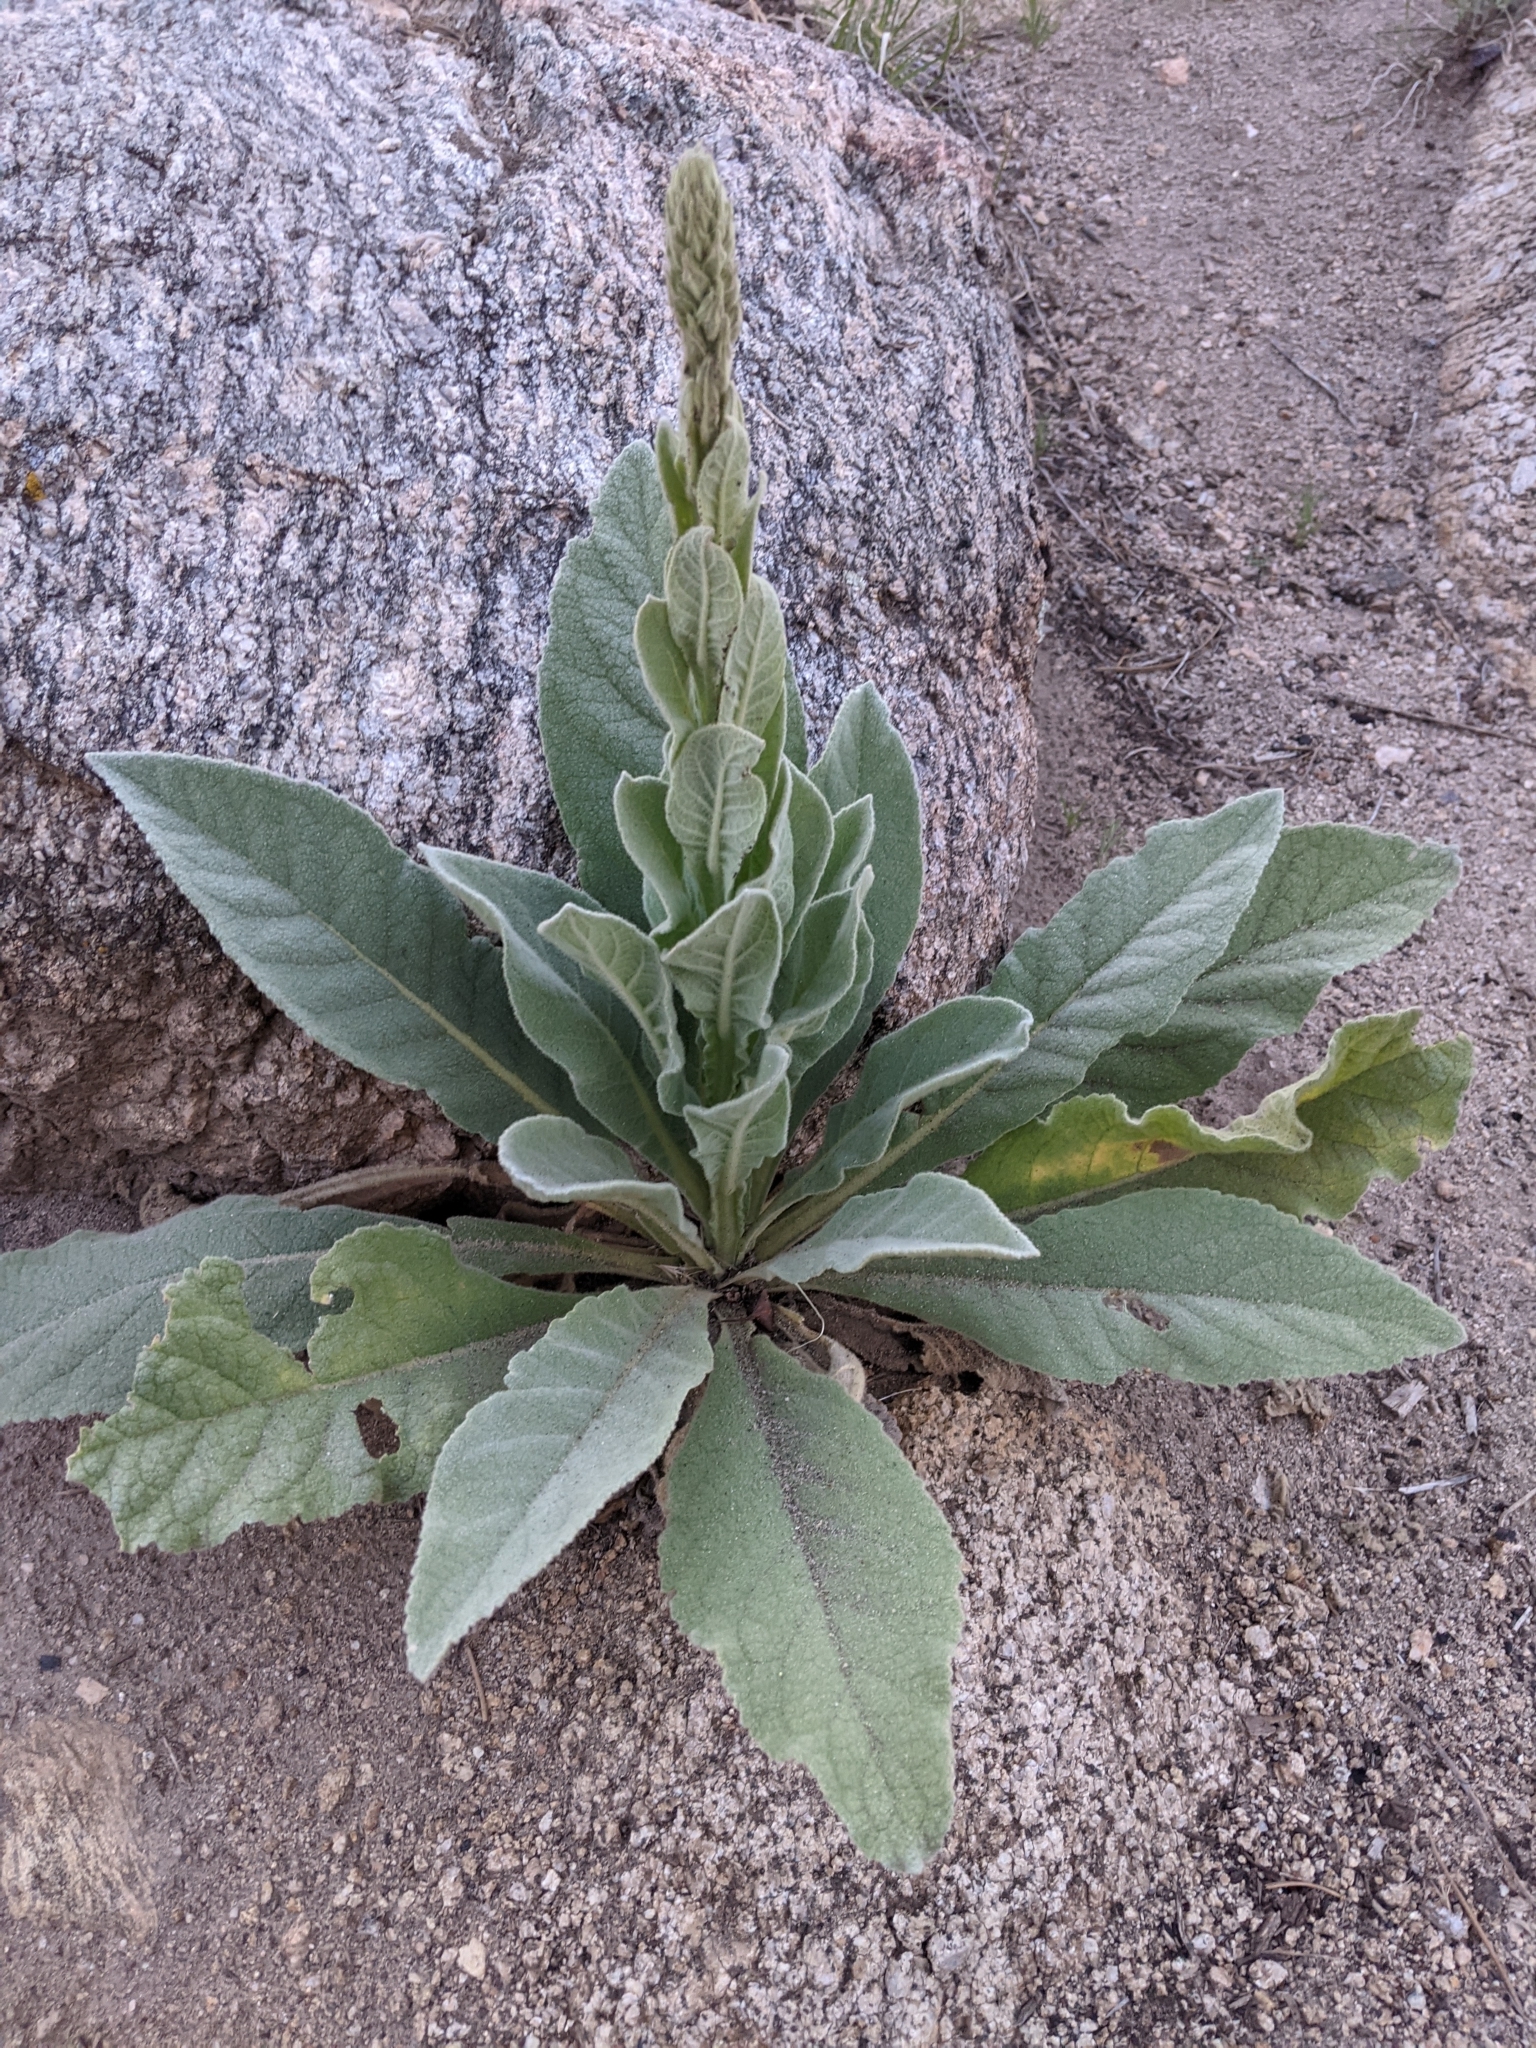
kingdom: Plantae
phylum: Tracheophyta
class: Magnoliopsida
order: Lamiales
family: Scrophulariaceae
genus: Verbascum
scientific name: Verbascum thapsus
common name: Common mullein
